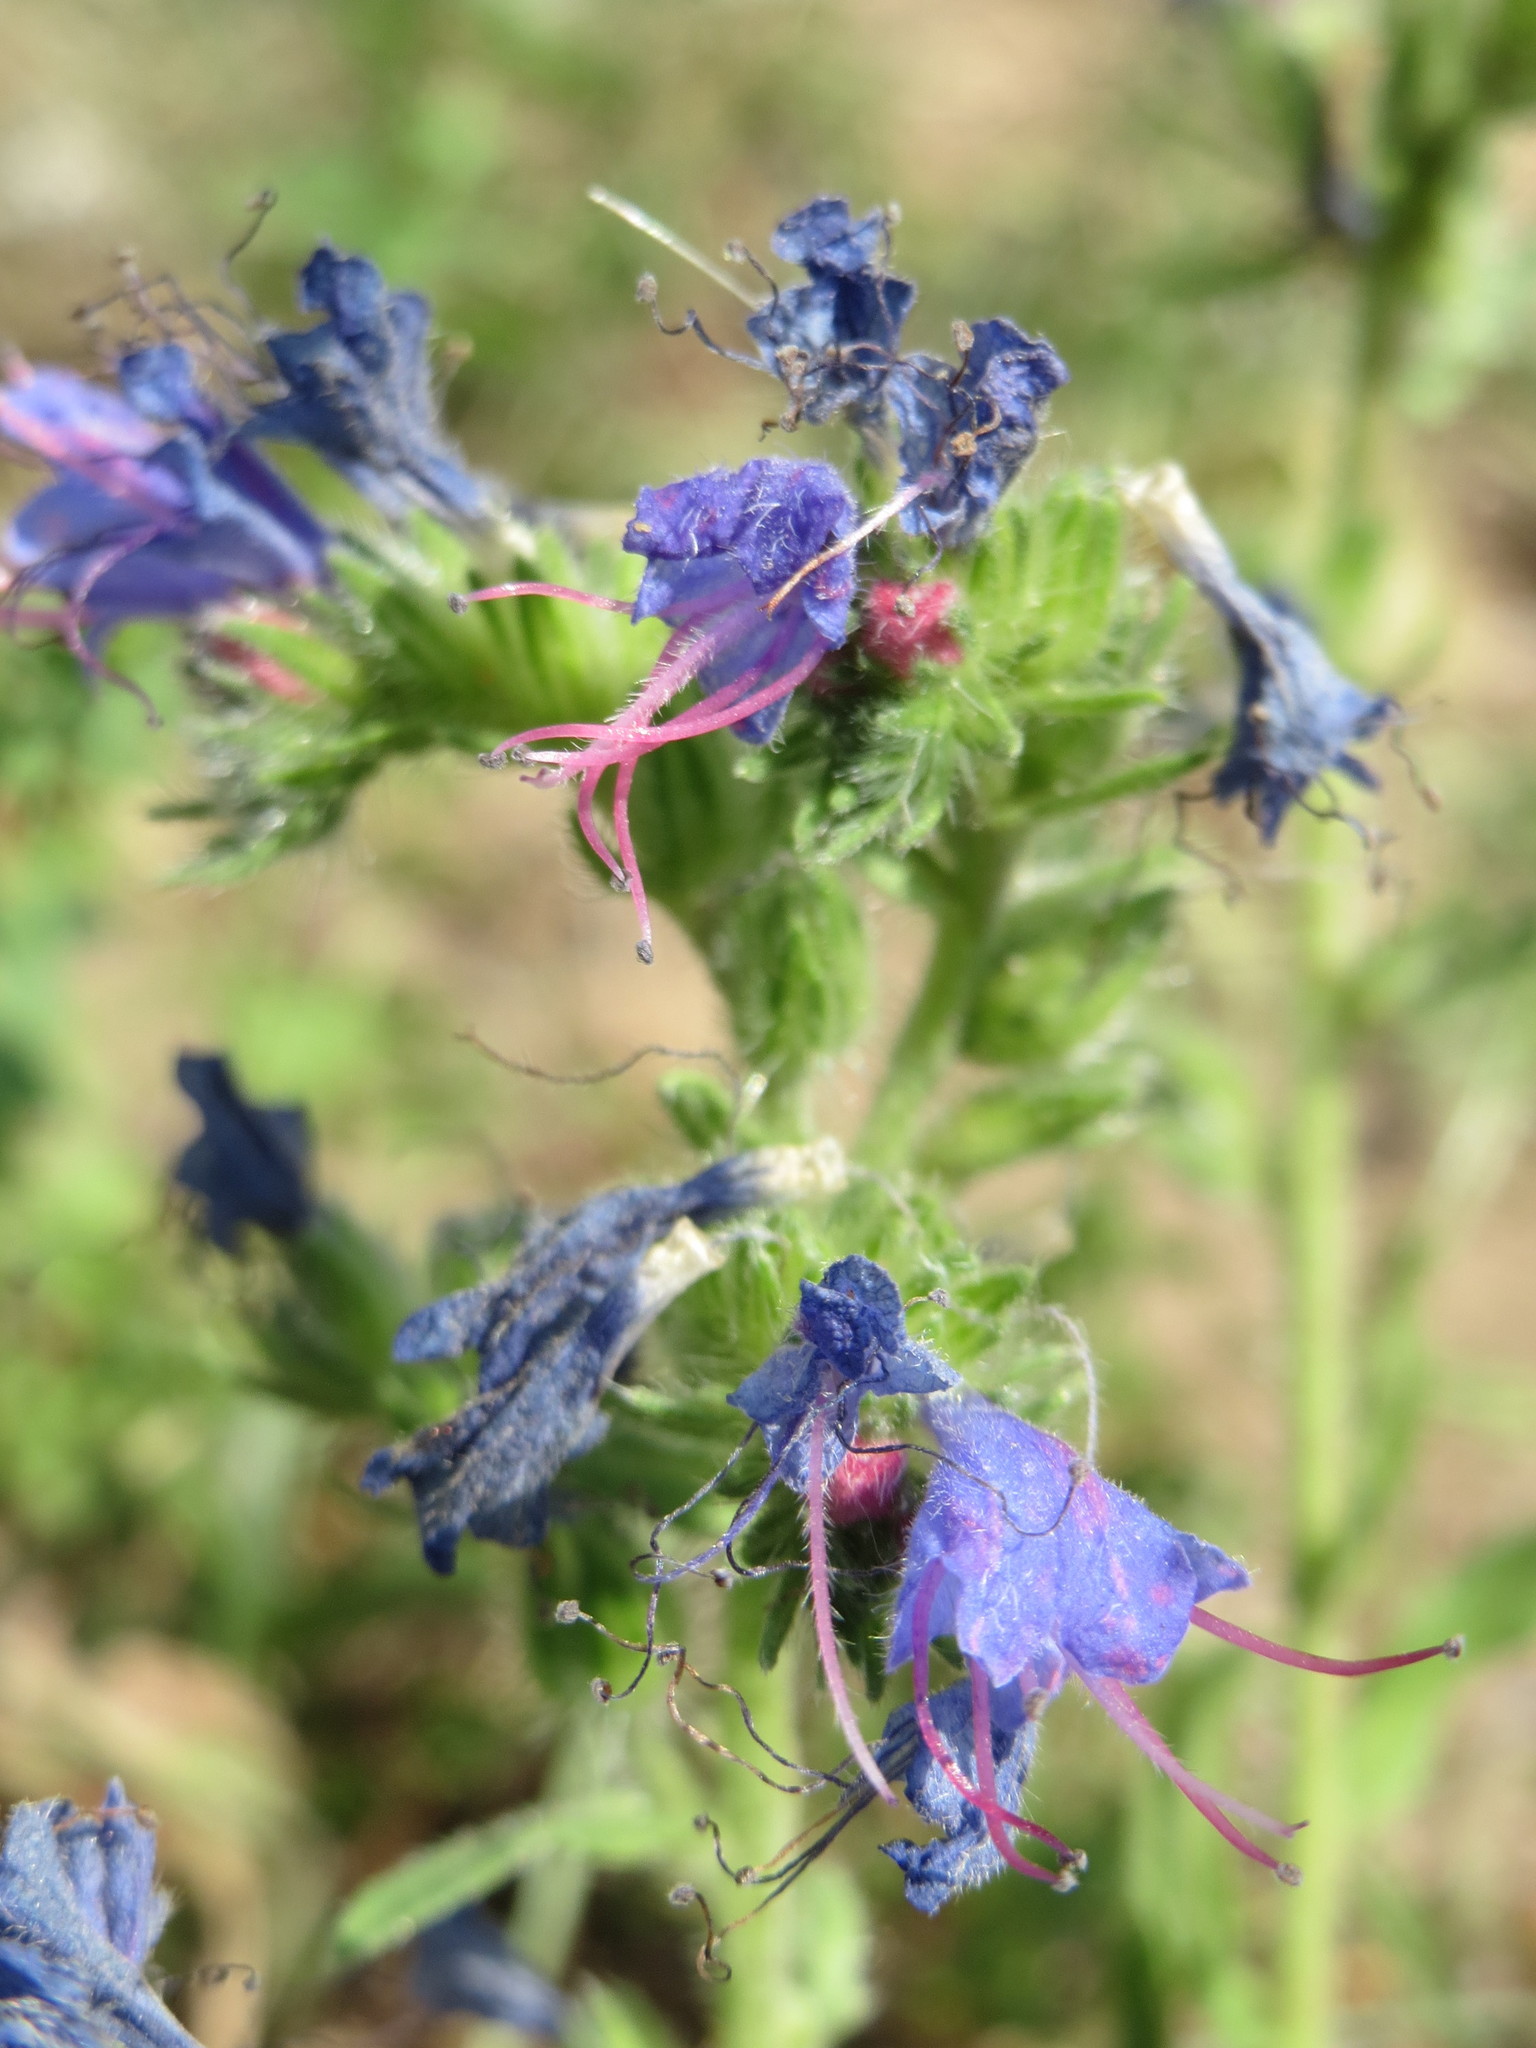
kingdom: Plantae
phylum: Tracheophyta
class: Magnoliopsida
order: Boraginales
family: Boraginaceae
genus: Echium
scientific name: Echium vulgare
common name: Common viper's bugloss
